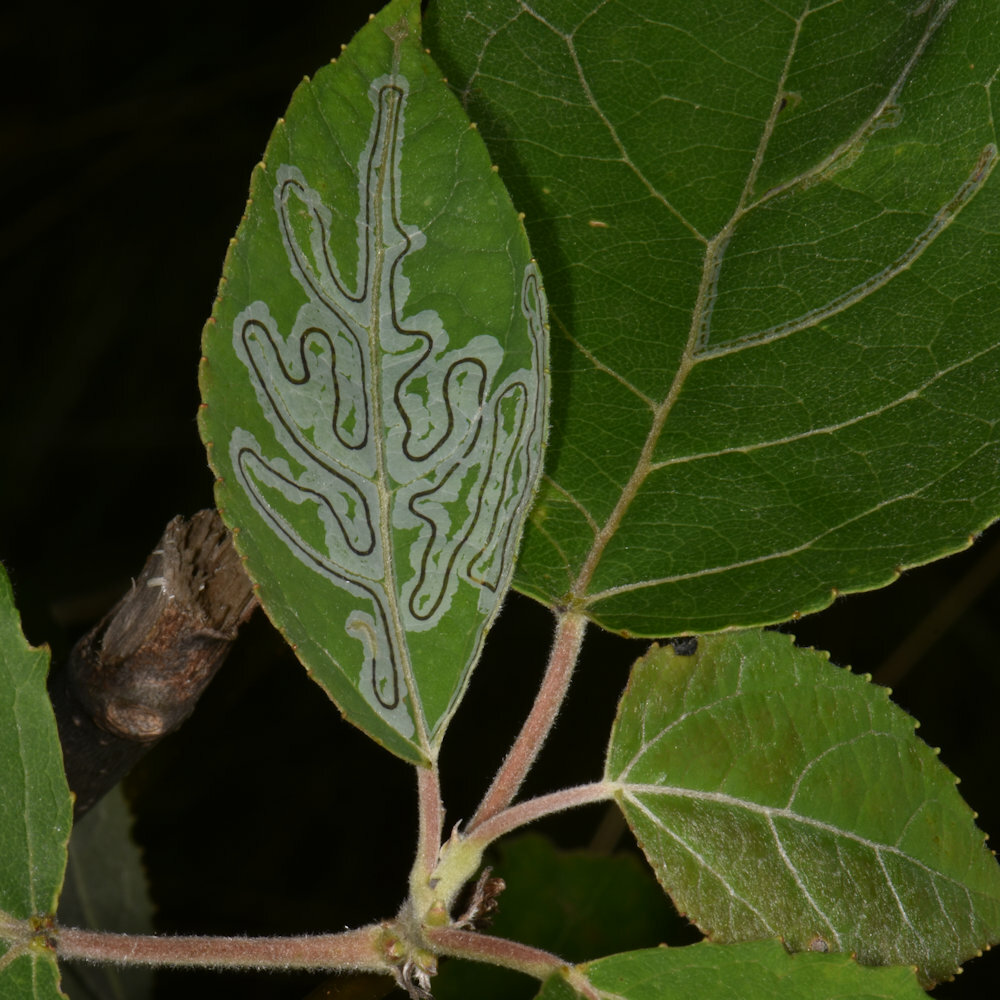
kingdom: Animalia
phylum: Arthropoda
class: Insecta
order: Lepidoptera
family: Gracillariidae
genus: Phyllocnistis
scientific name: Phyllocnistis populiella
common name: Aspen serpentine leafminer moth
